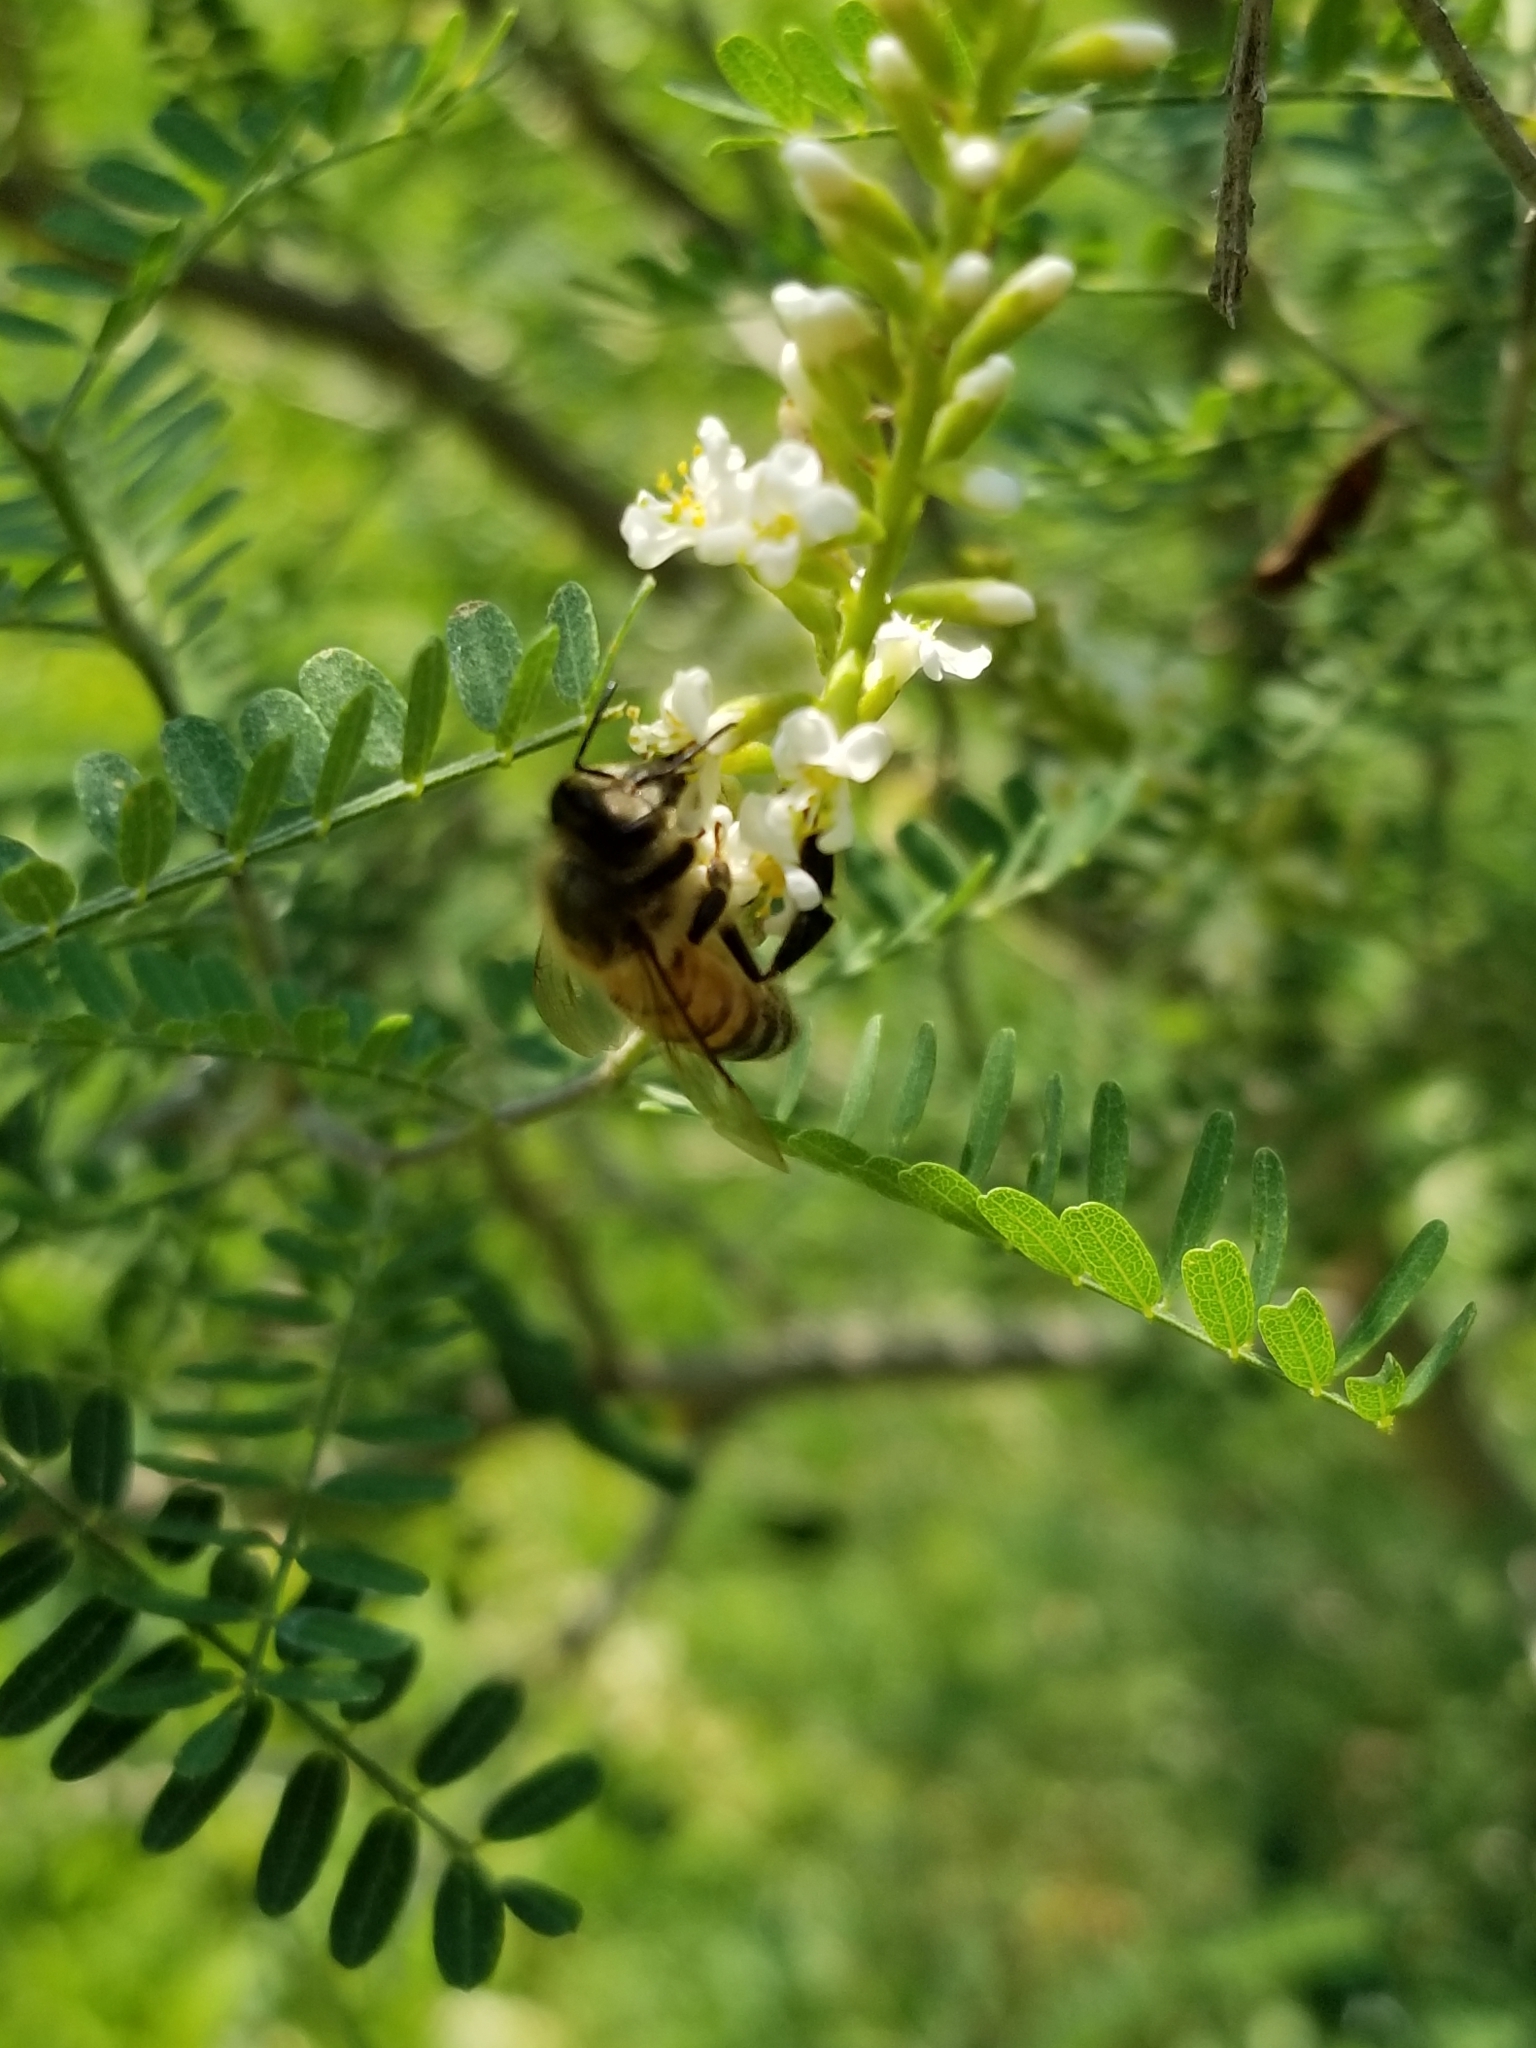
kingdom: Animalia
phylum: Arthropoda
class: Insecta
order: Hymenoptera
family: Apidae
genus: Apis
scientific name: Apis mellifera
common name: Honey bee
